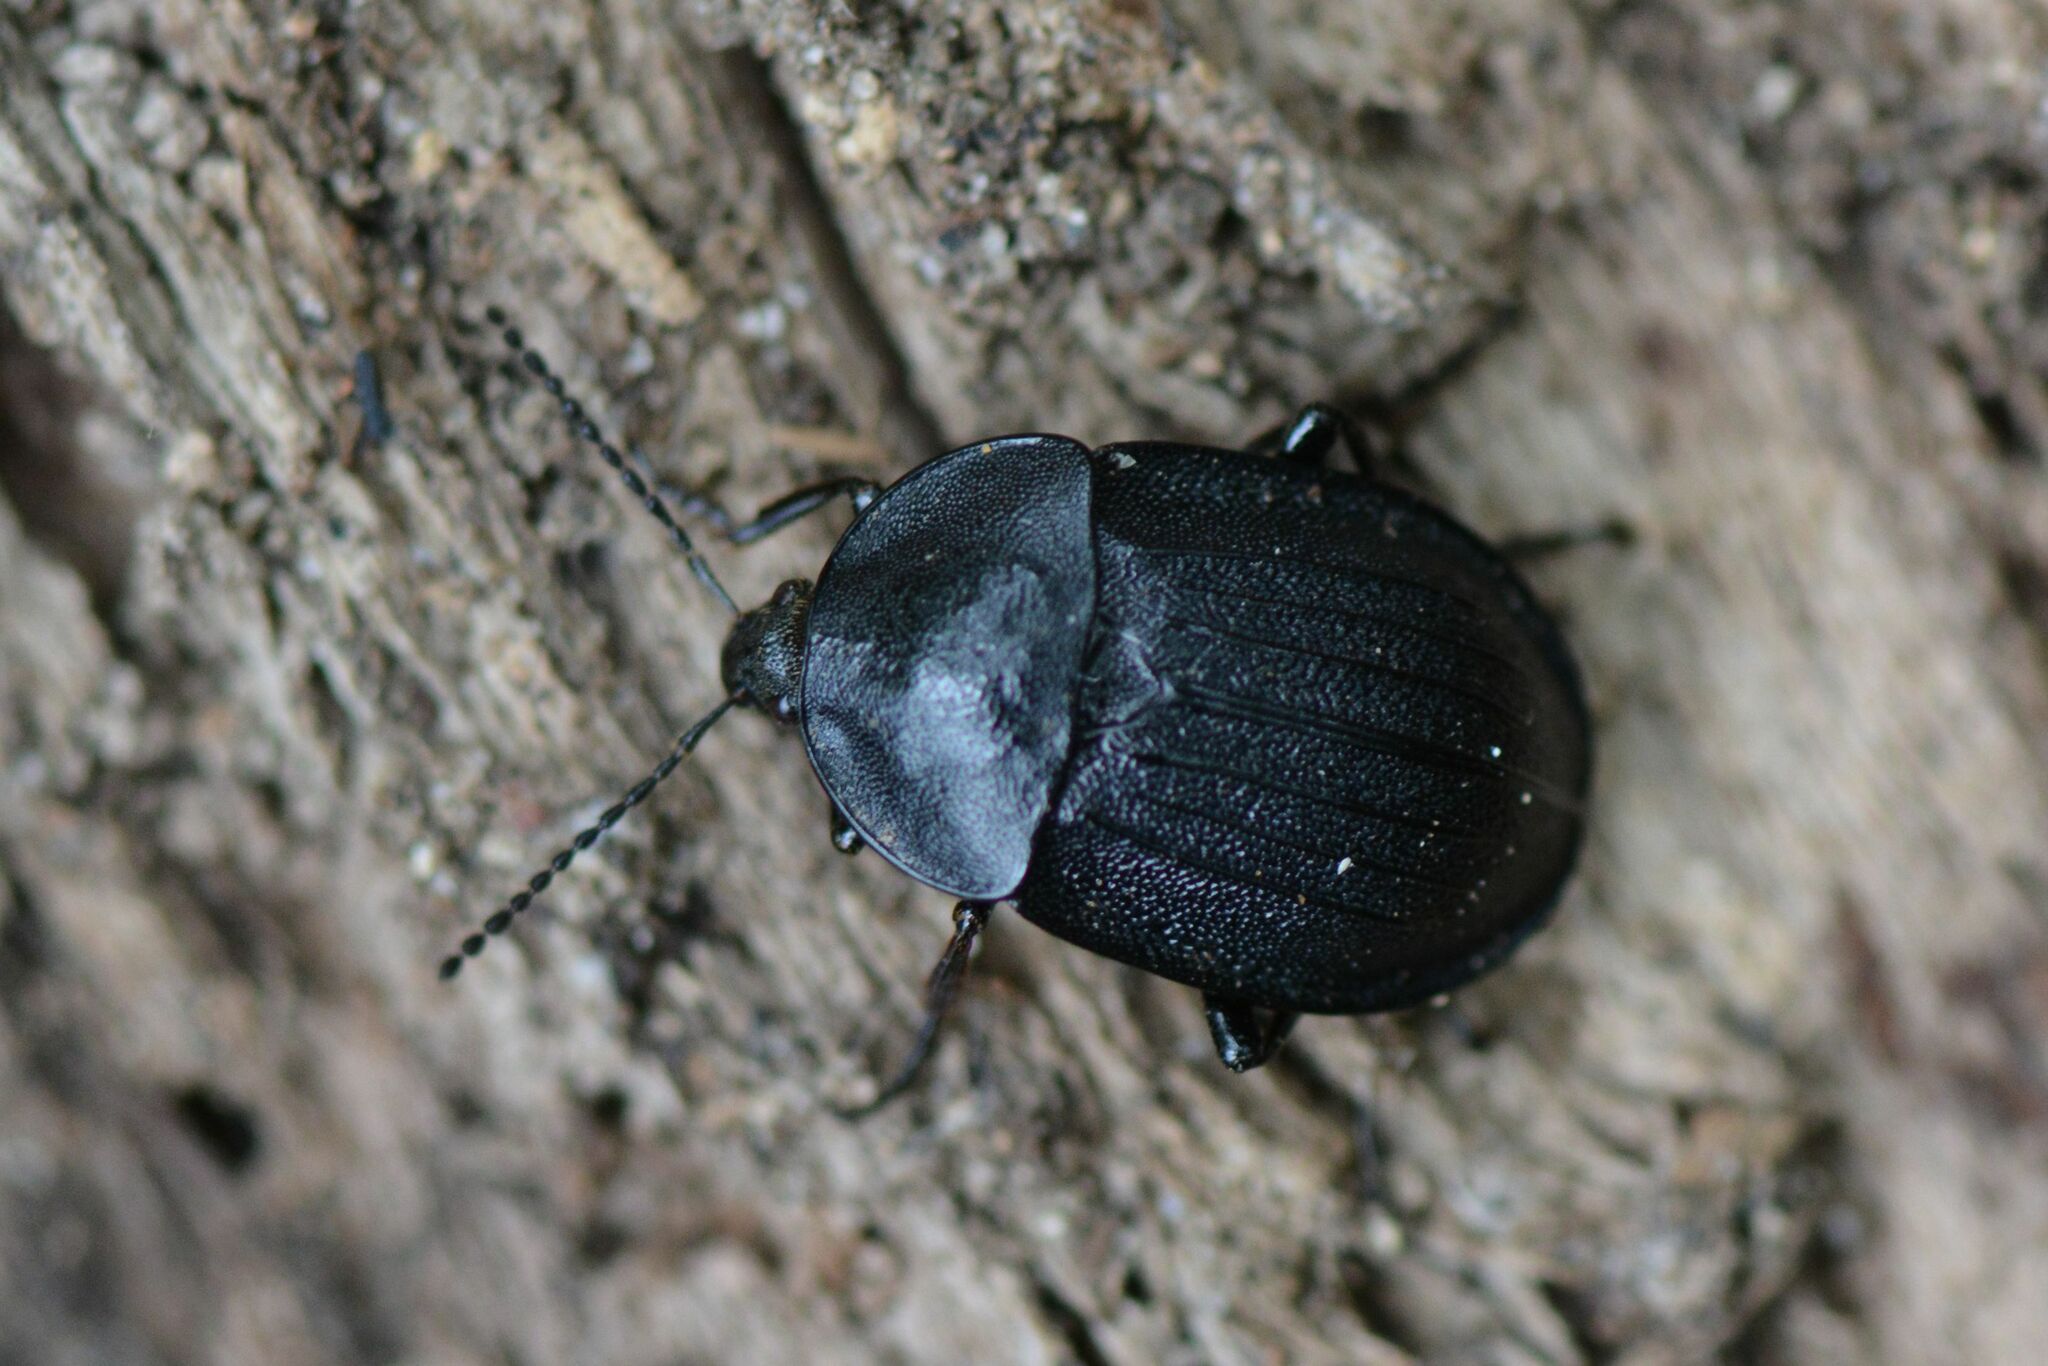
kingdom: Animalia
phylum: Arthropoda
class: Insecta
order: Coleoptera
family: Staphylinidae
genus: Silpha
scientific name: Silpha atrata
